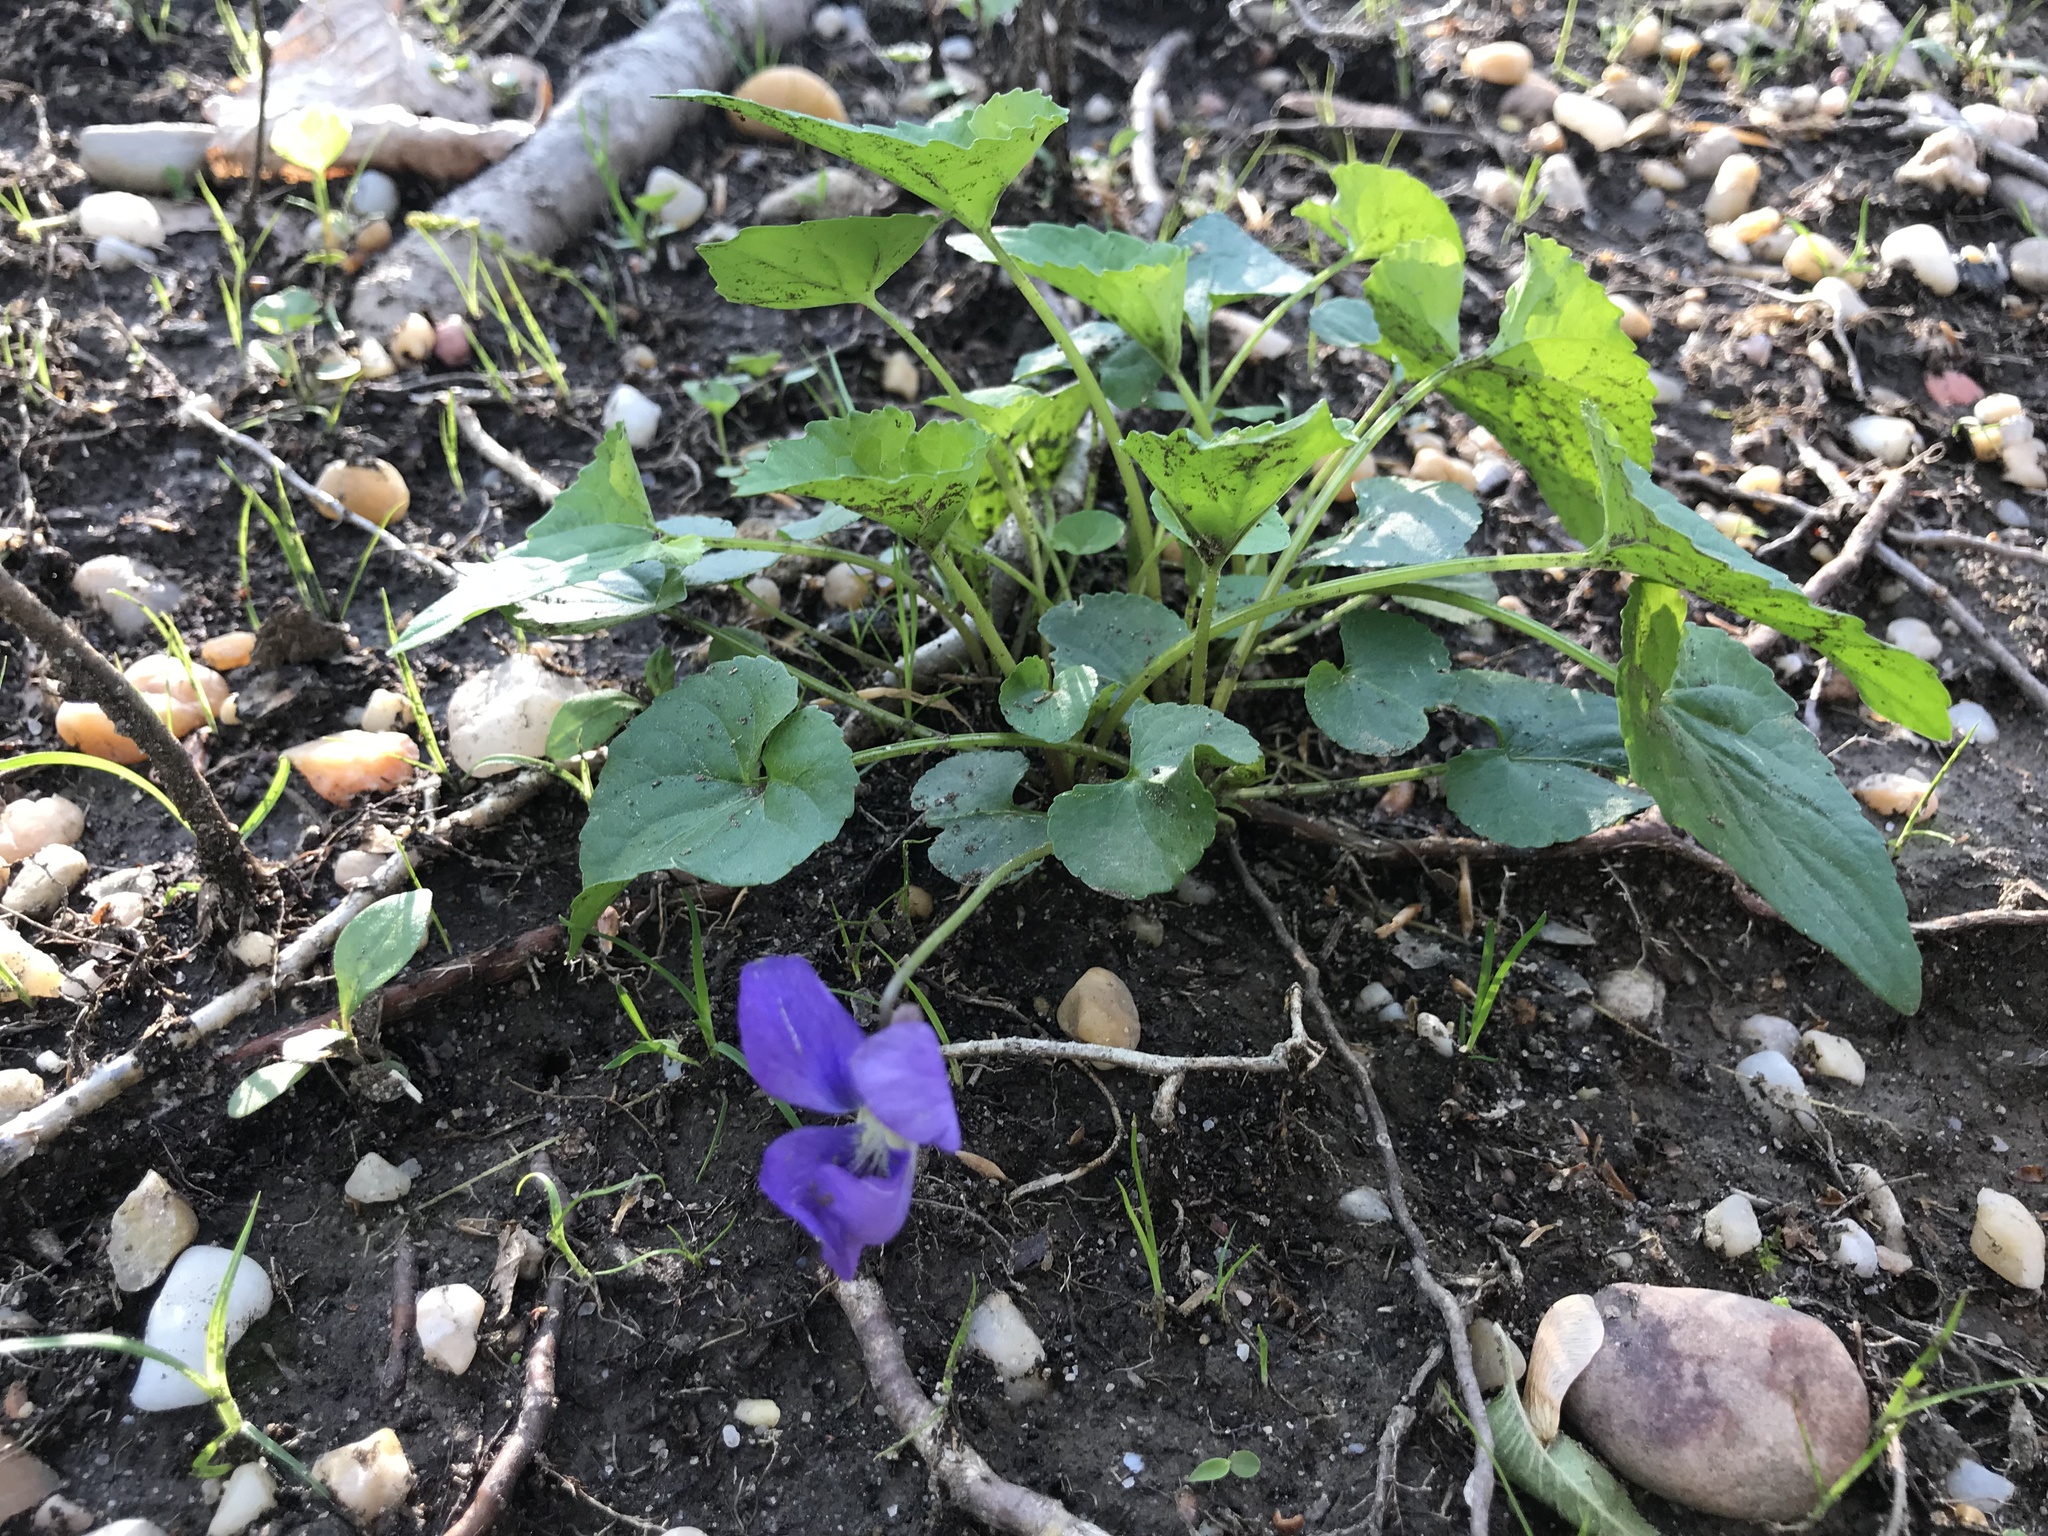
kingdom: Plantae
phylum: Tracheophyta
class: Magnoliopsida
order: Malpighiales
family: Violaceae
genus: Viola
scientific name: Viola sororia
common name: Dooryard violet
